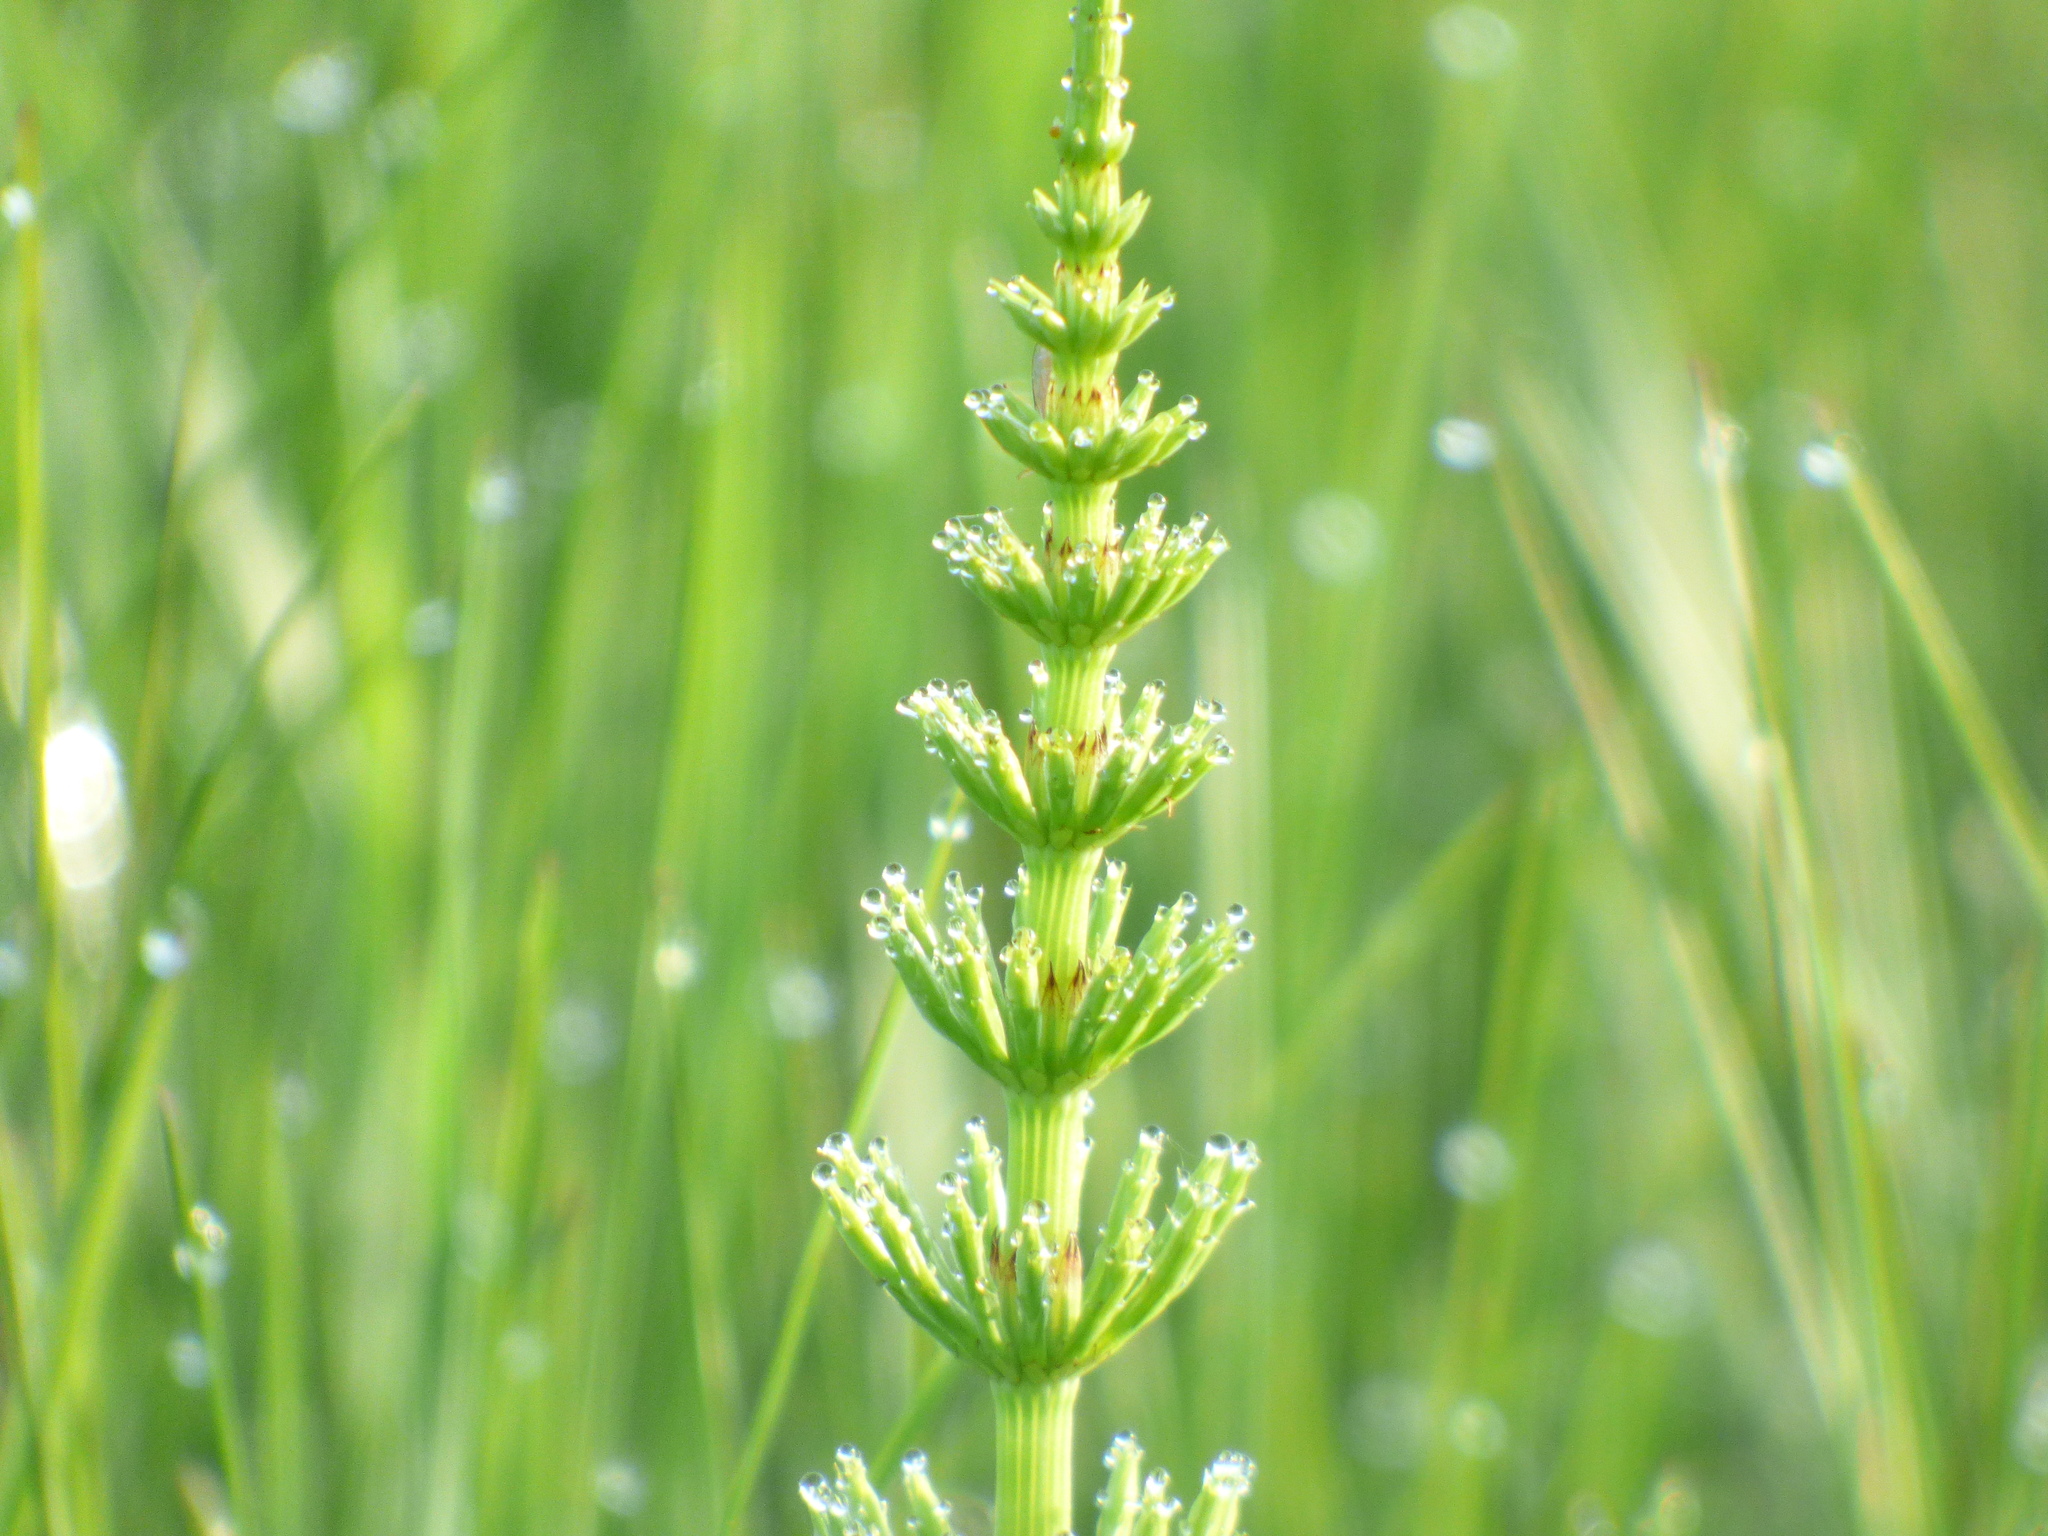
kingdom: Plantae
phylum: Tracheophyta
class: Polypodiopsida
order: Equisetales
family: Equisetaceae
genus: Equisetum
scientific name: Equisetum arvense
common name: Field horsetail
